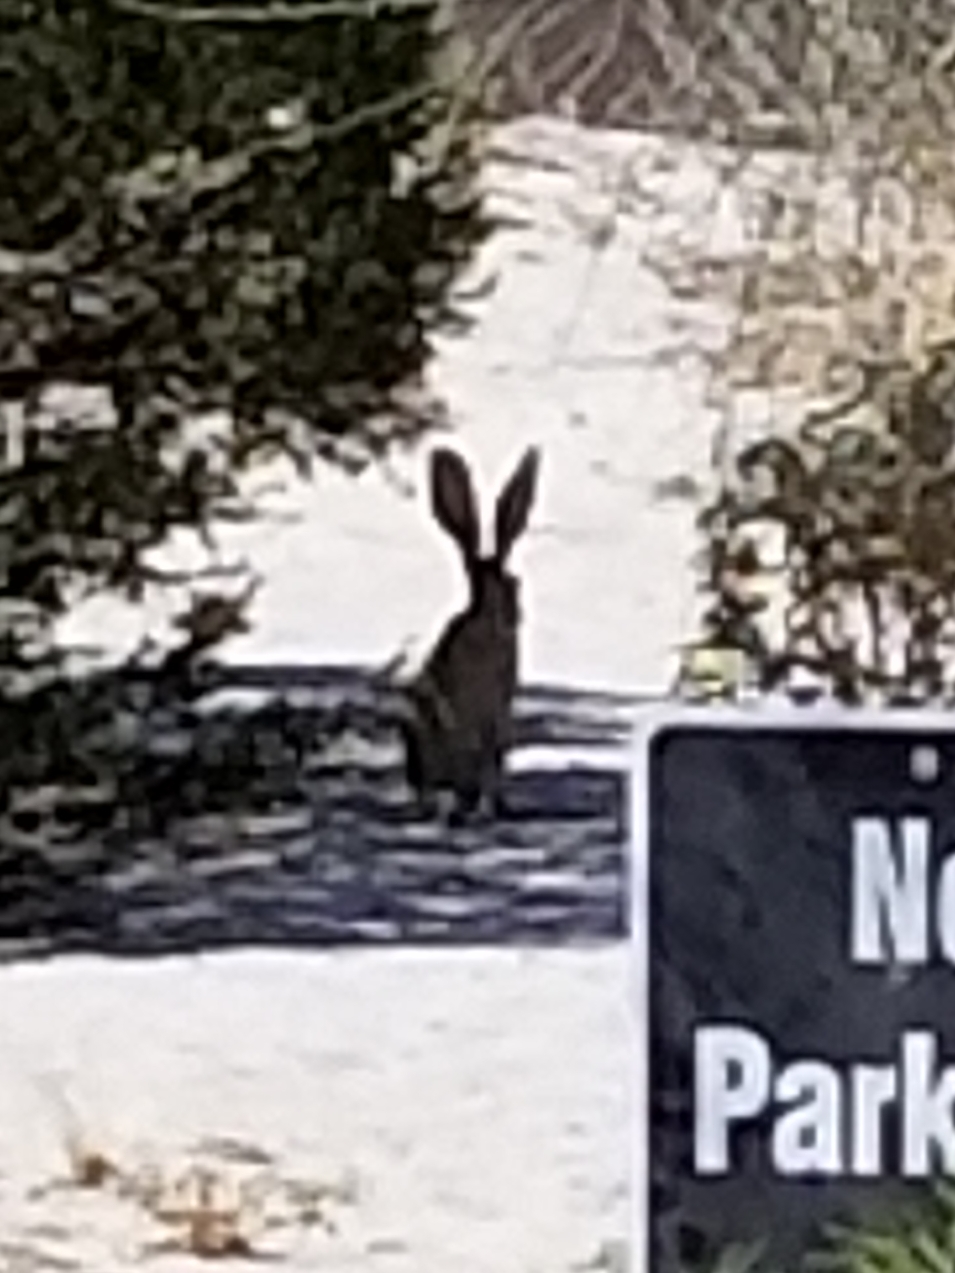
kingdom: Animalia
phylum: Chordata
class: Mammalia
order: Lagomorpha
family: Leporidae
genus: Lepus
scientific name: Lepus californicus
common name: Black-tailed jackrabbit
